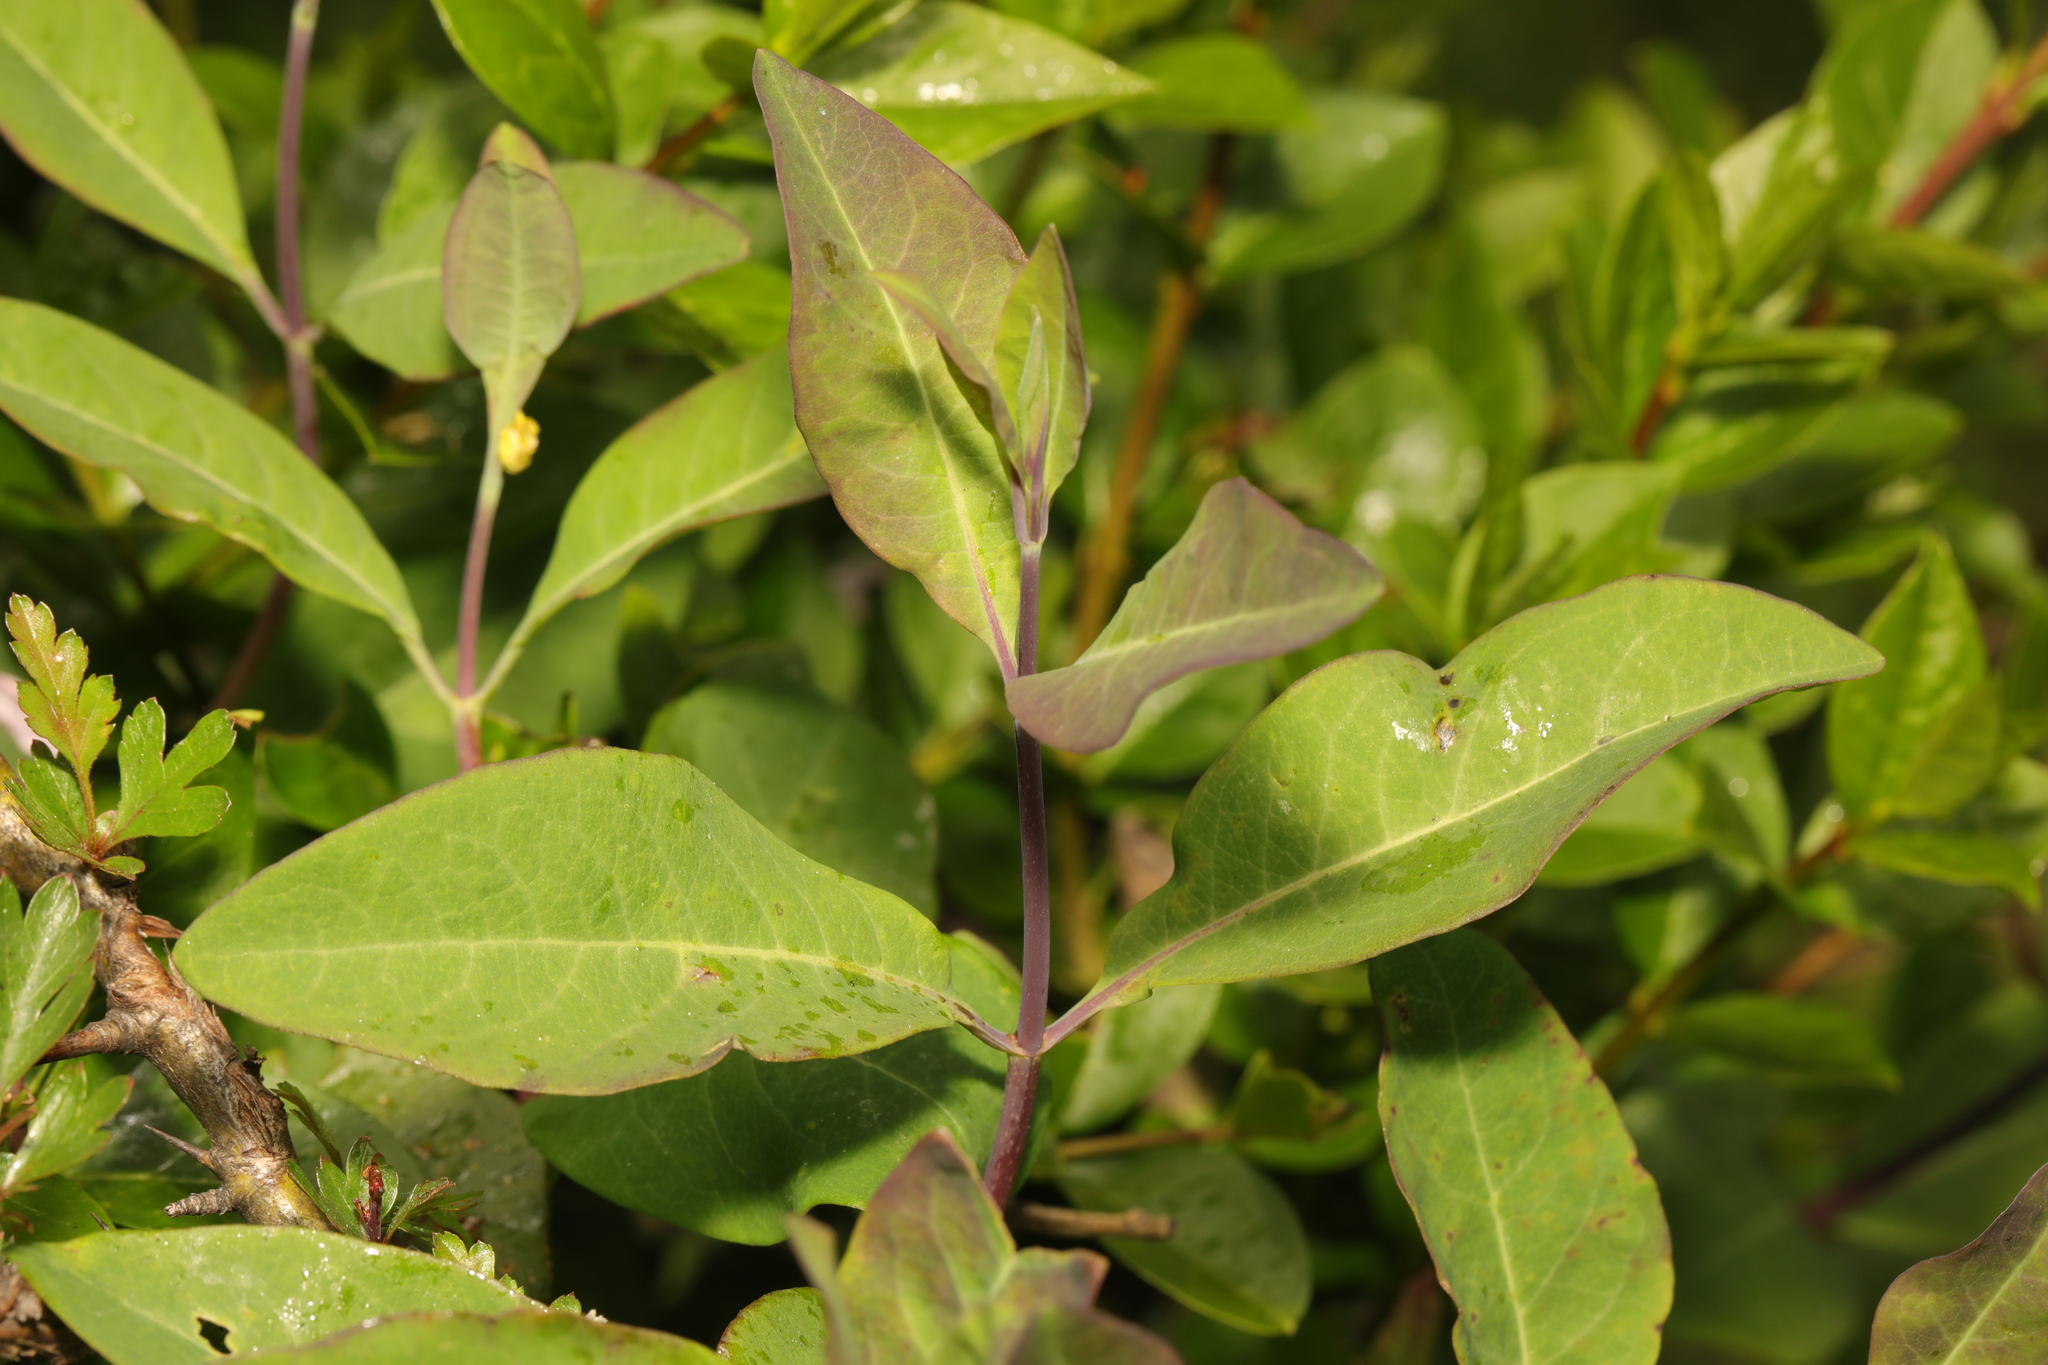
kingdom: Plantae
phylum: Tracheophyta
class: Magnoliopsida
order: Dipsacales
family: Caprifoliaceae
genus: Lonicera
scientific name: Lonicera periclymenum
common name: European honeysuckle
